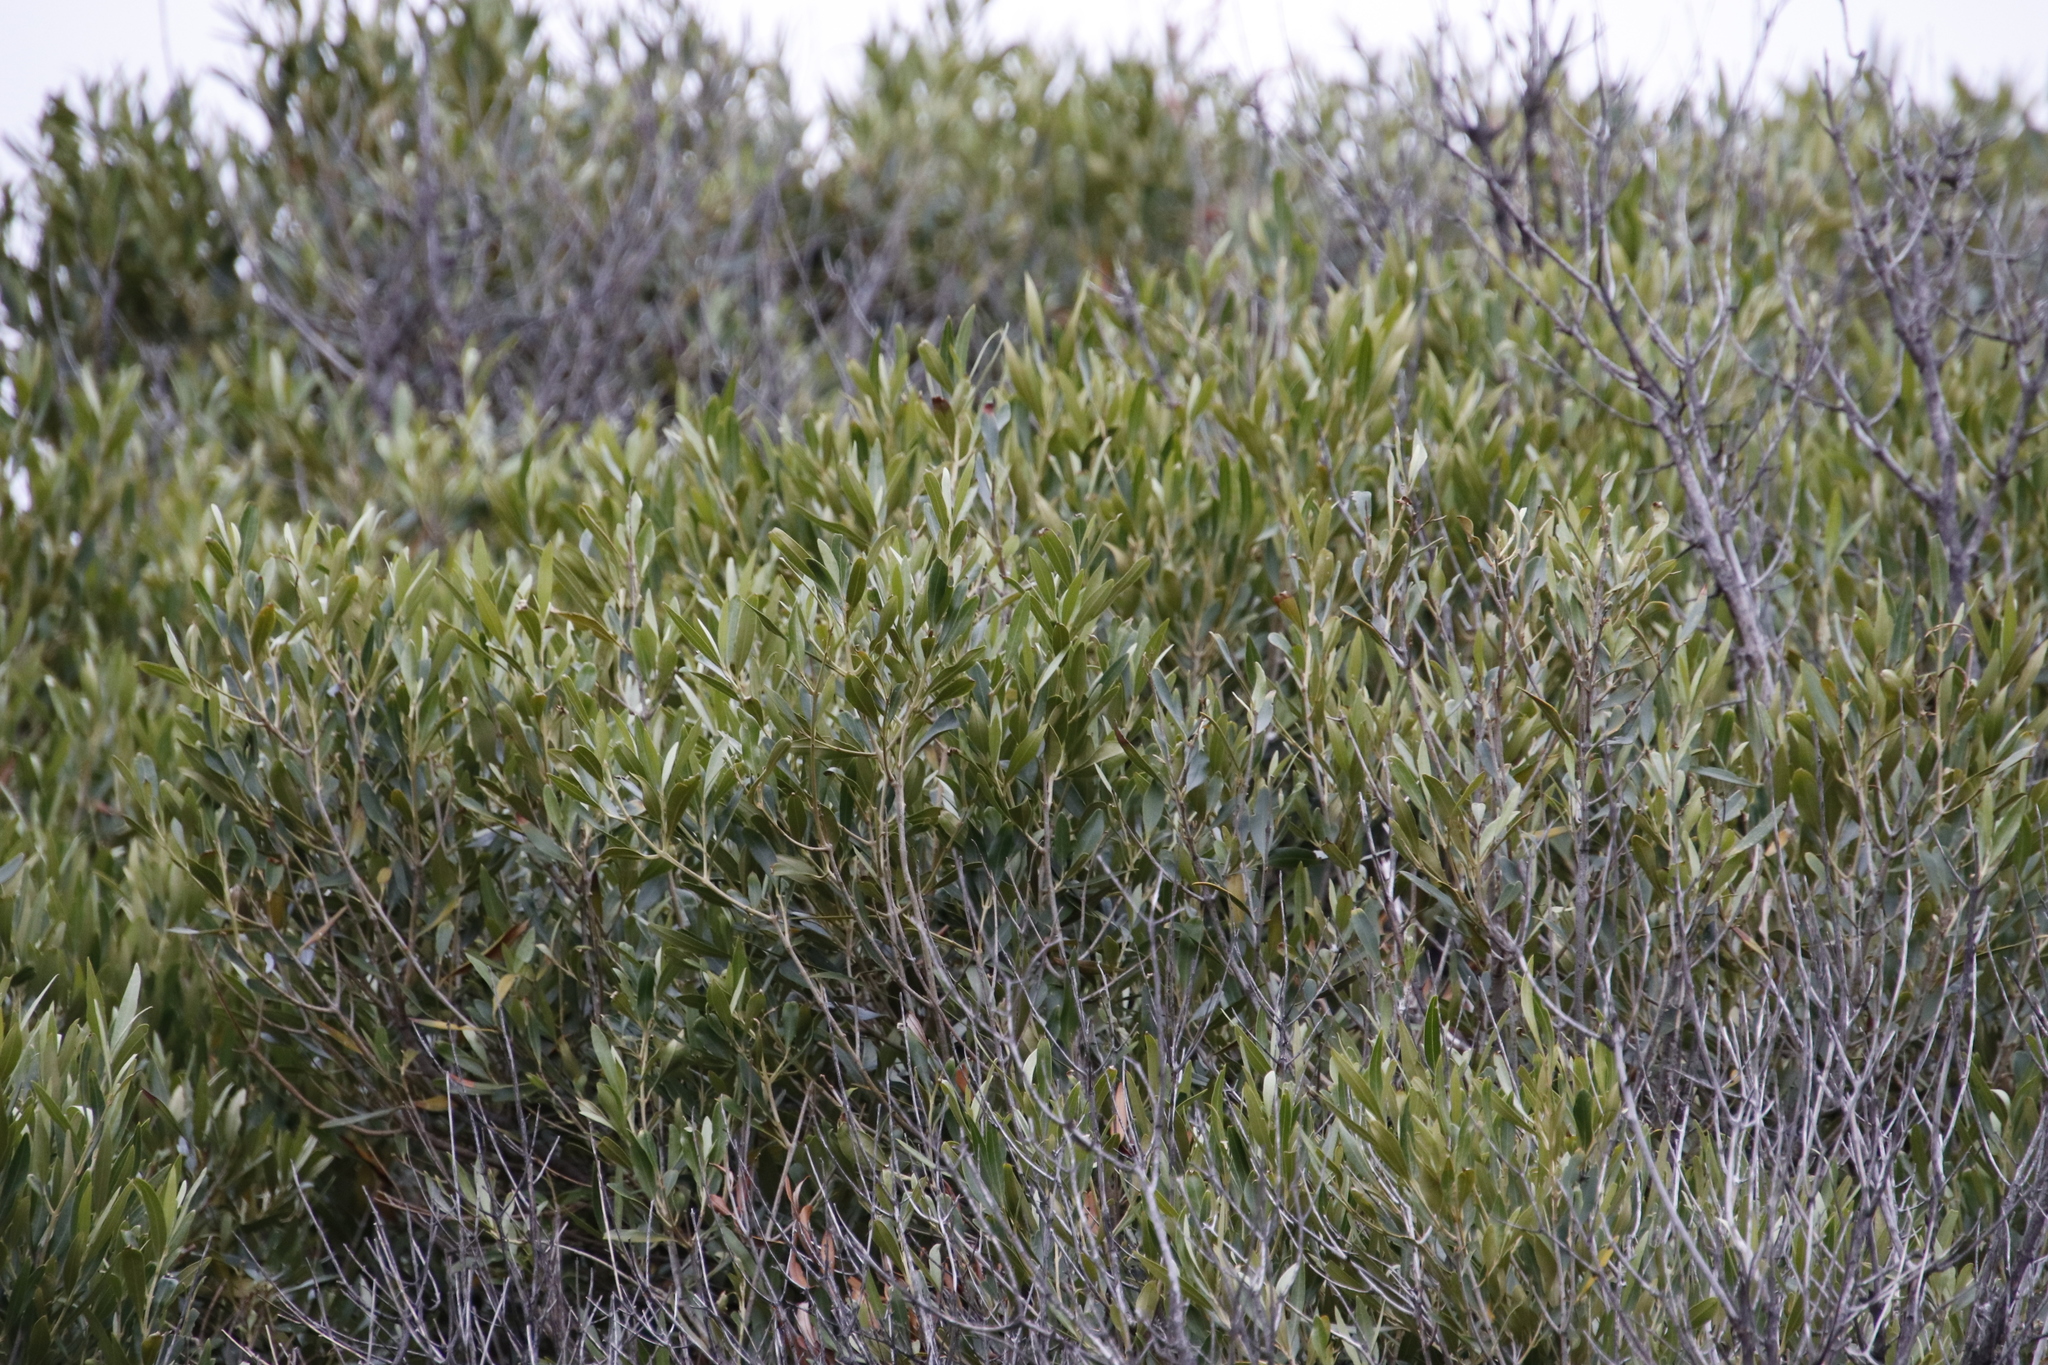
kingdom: Plantae
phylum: Tracheophyta
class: Magnoliopsida
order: Lamiales
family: Oleaceae
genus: Olea
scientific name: Olea europaea
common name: Olive
